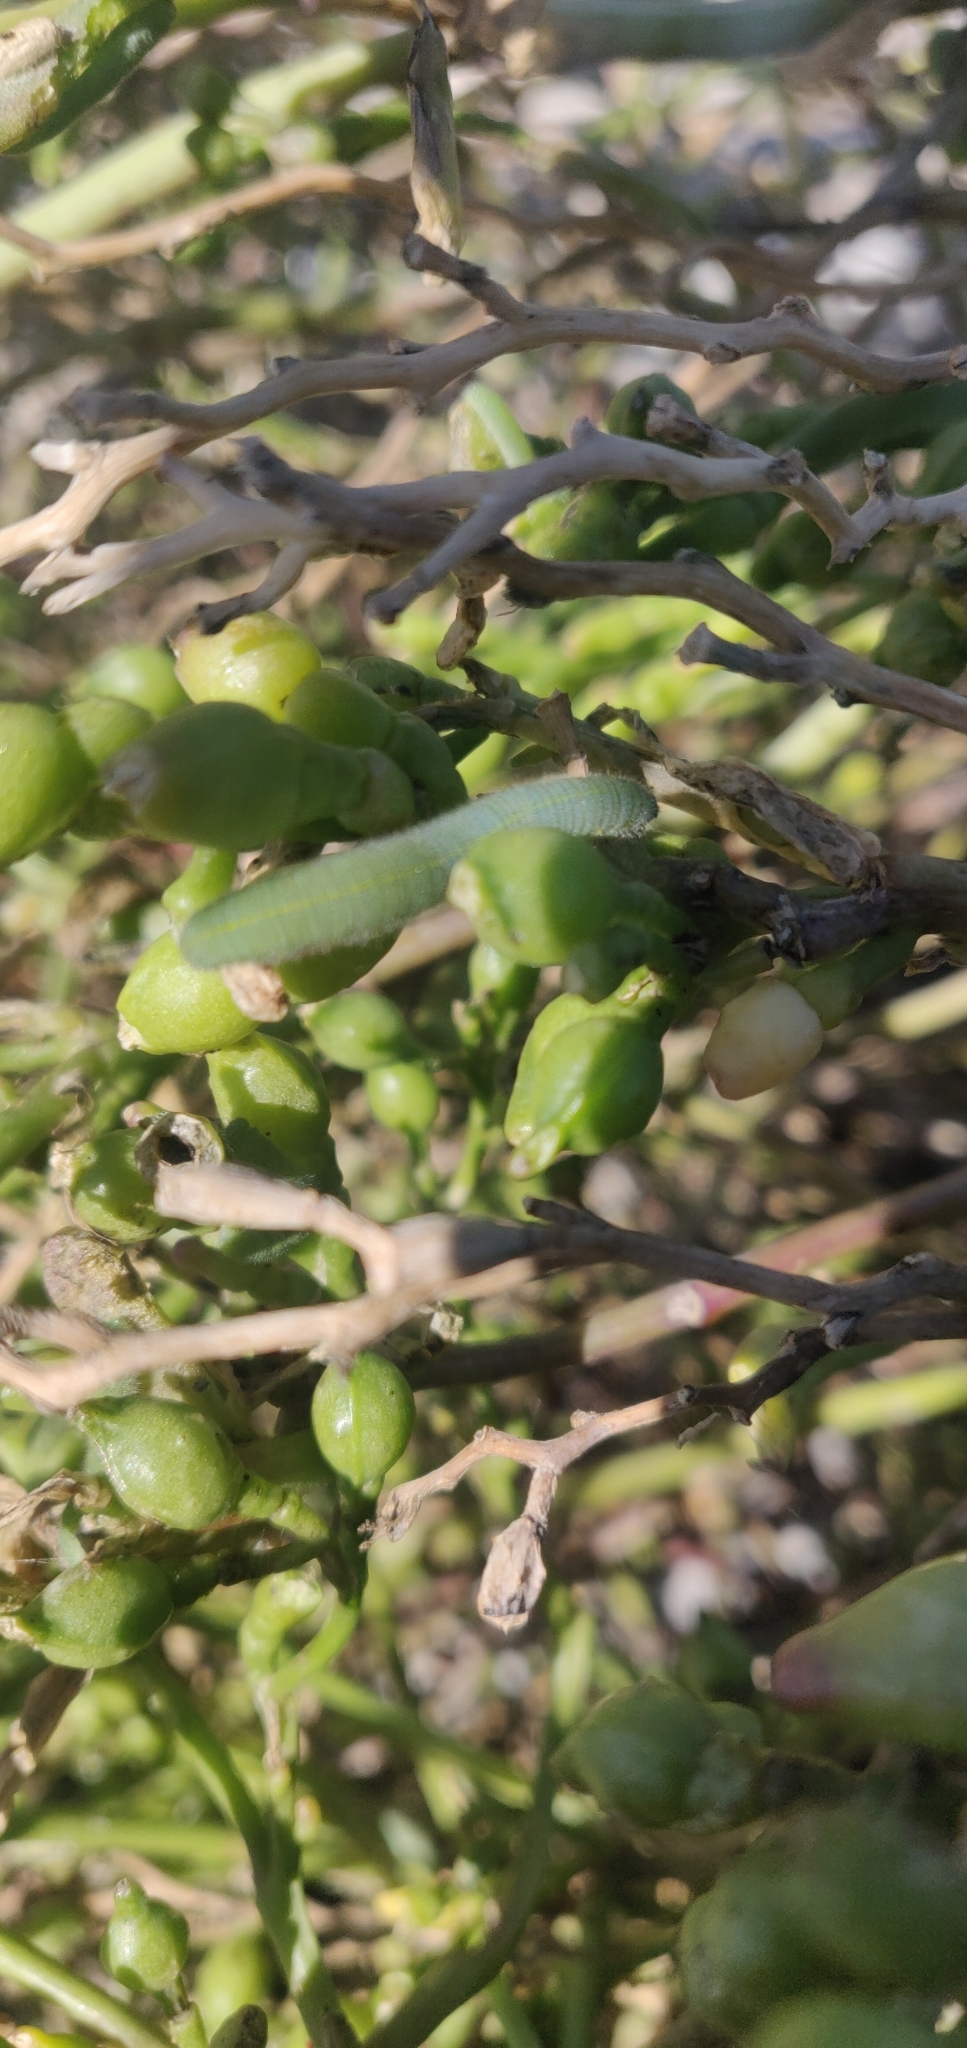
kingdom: Animalia
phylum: Arthropoda
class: Insecta
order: Lepidoptera
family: Pieridae
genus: Pieris
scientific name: Pieris rapae
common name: Small white
